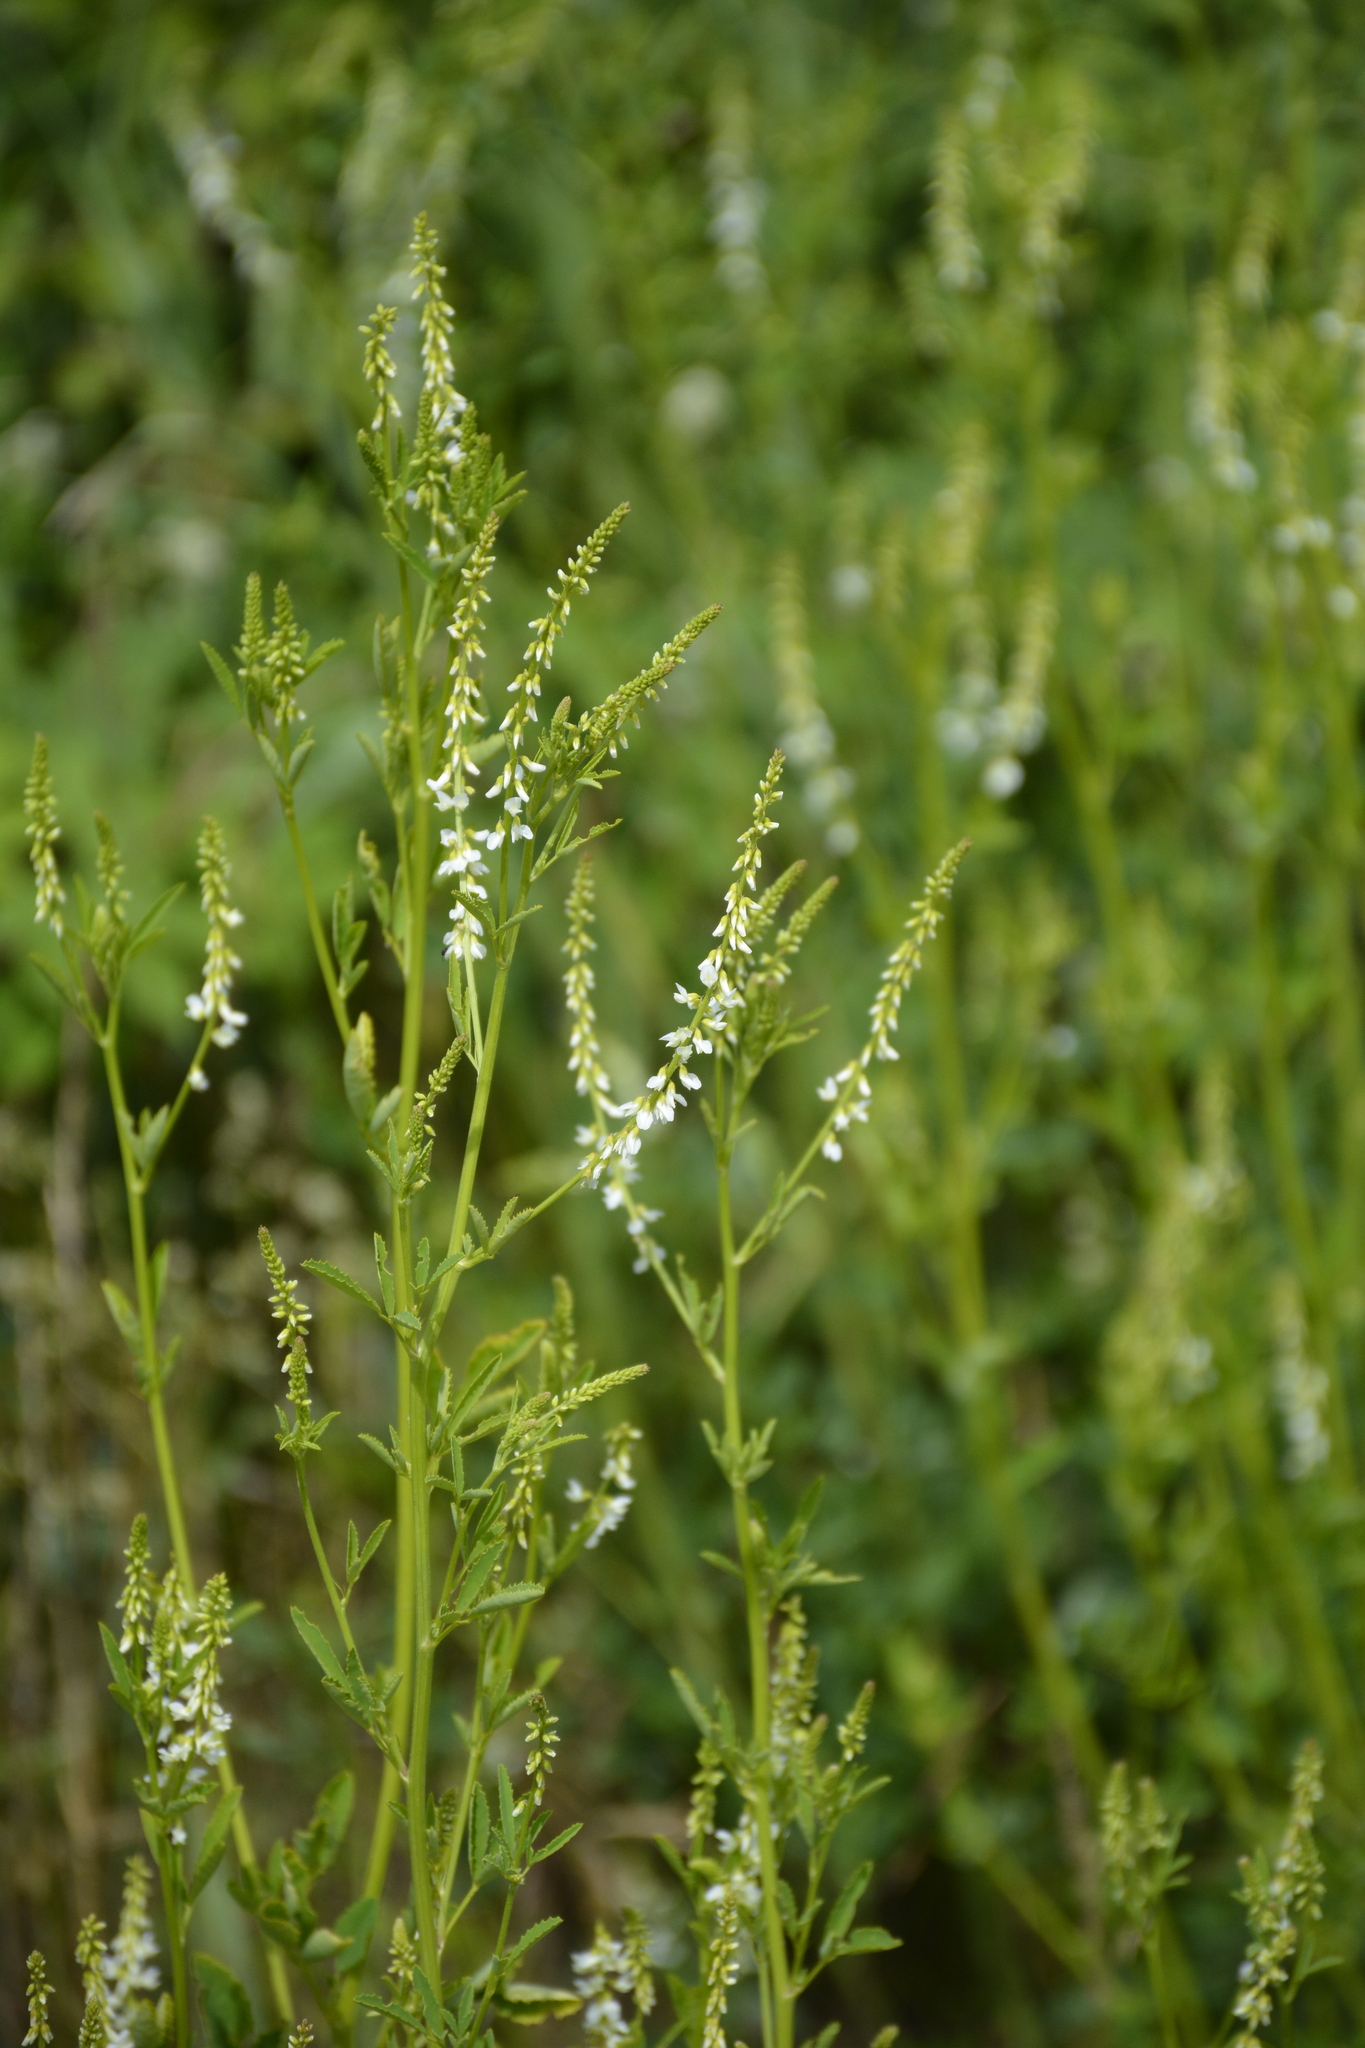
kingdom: Plantae
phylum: Tracheophyta
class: Magnoliopsida
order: Fabales
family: Fabaceae
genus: Melilotus
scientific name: Melilotus albus
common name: White melilot
